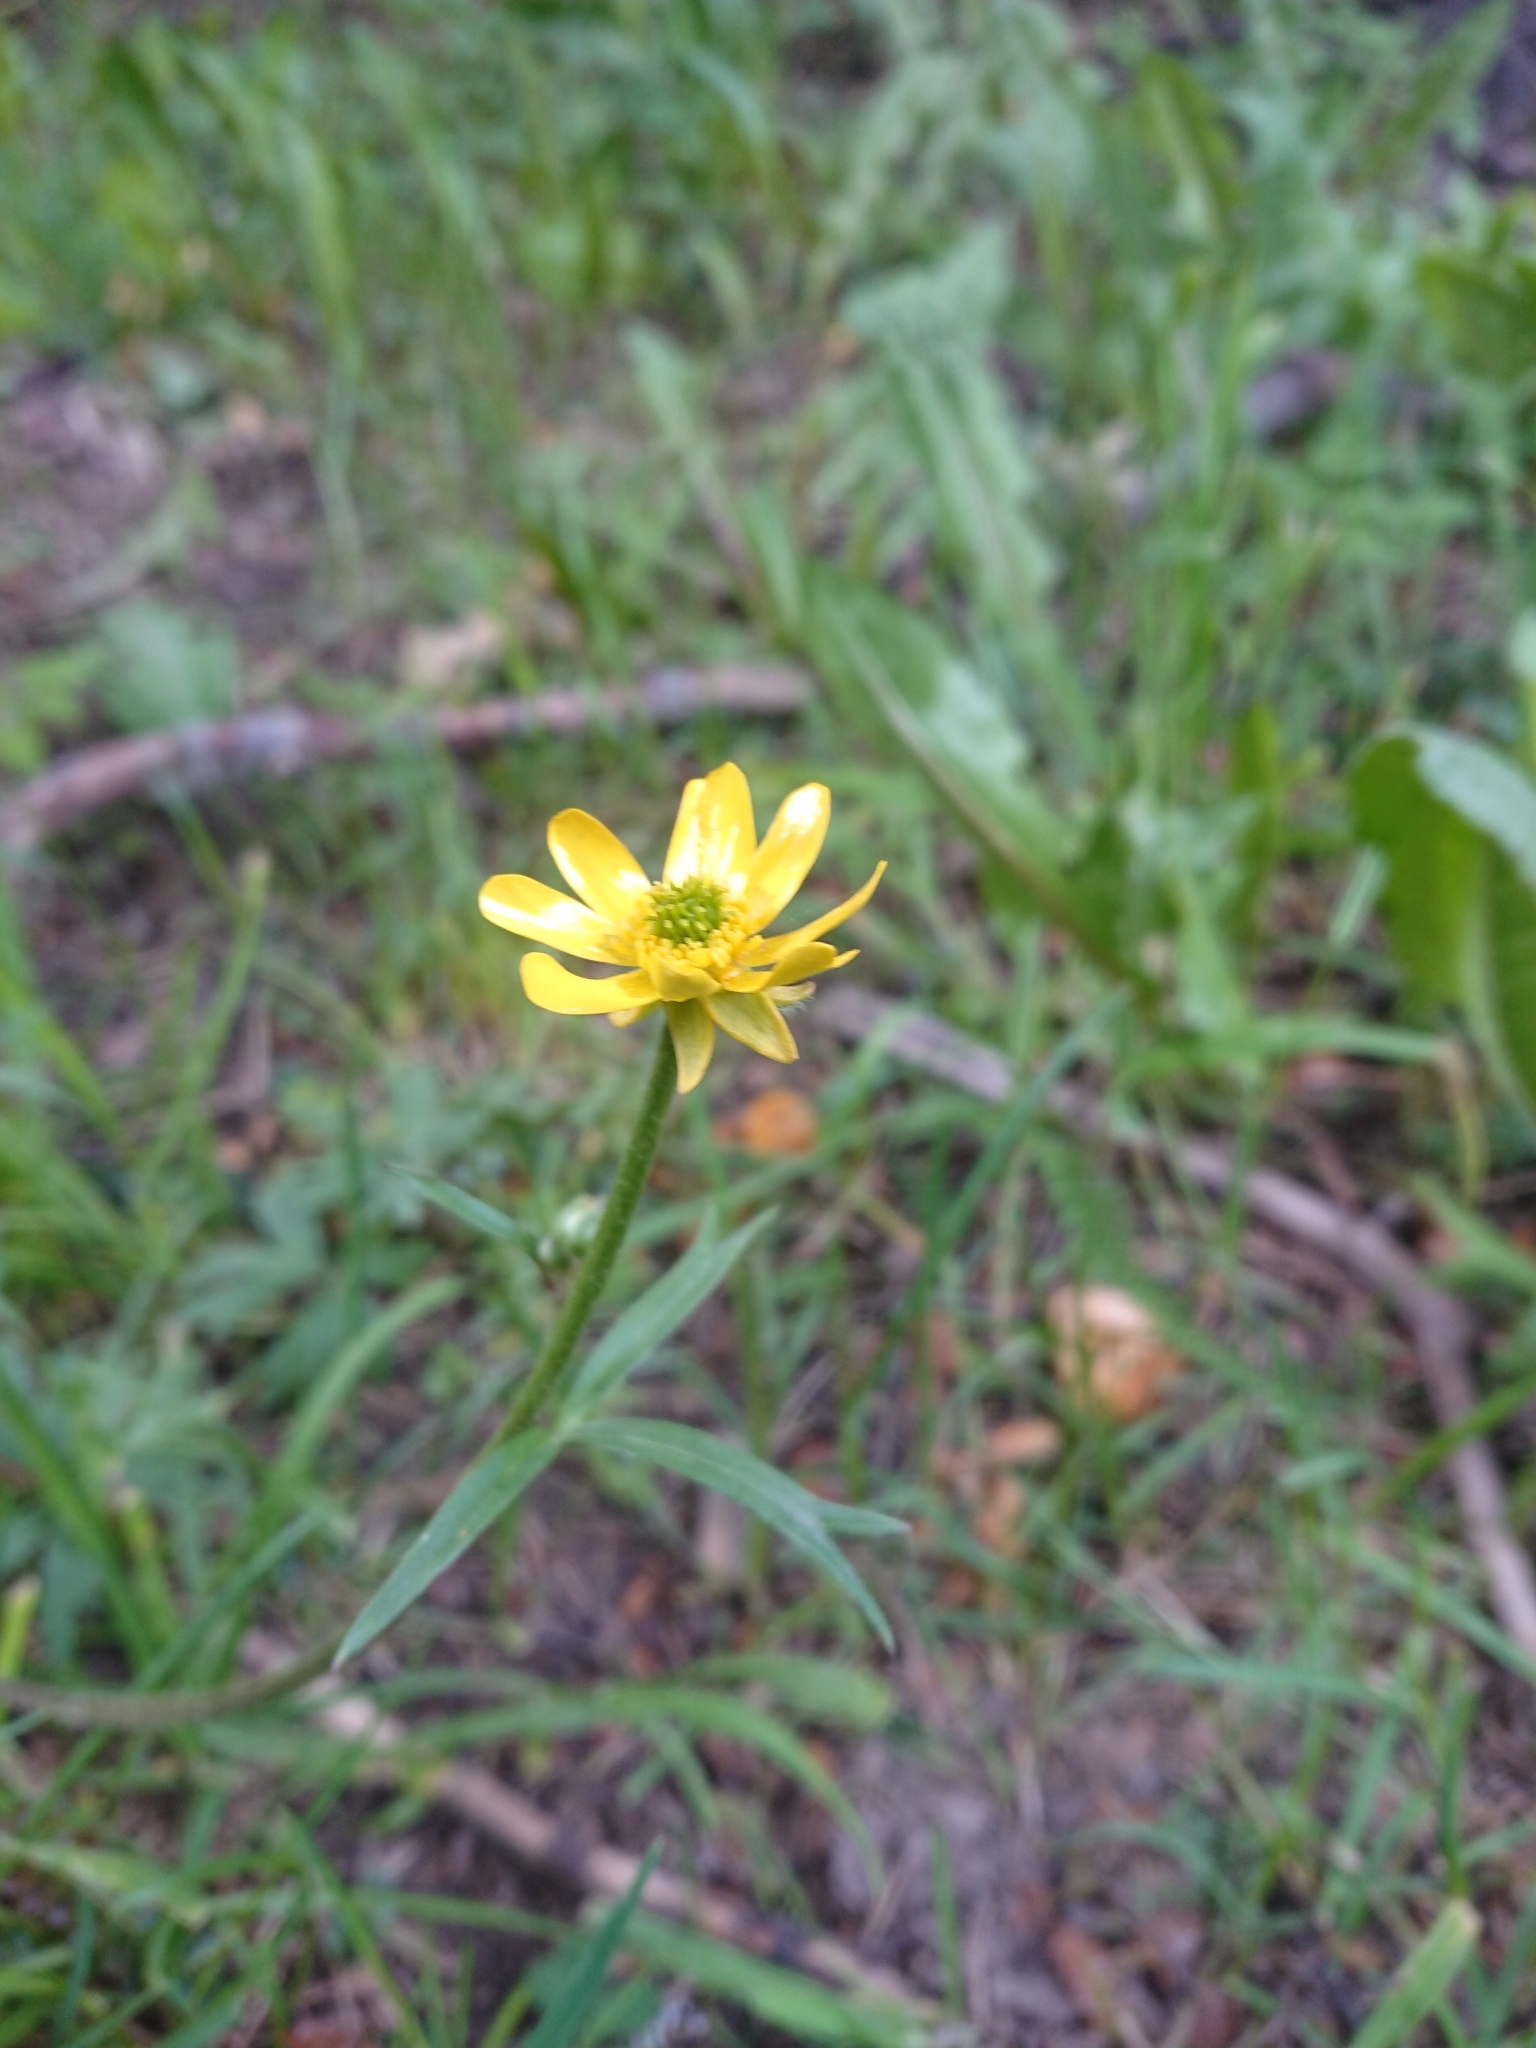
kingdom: Plantae
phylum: Tracheophyta
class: Magnoliopsida
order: Ranunculales
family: Ranunculaceae
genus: Ranunculus
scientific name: Ranunculus peduncularis
